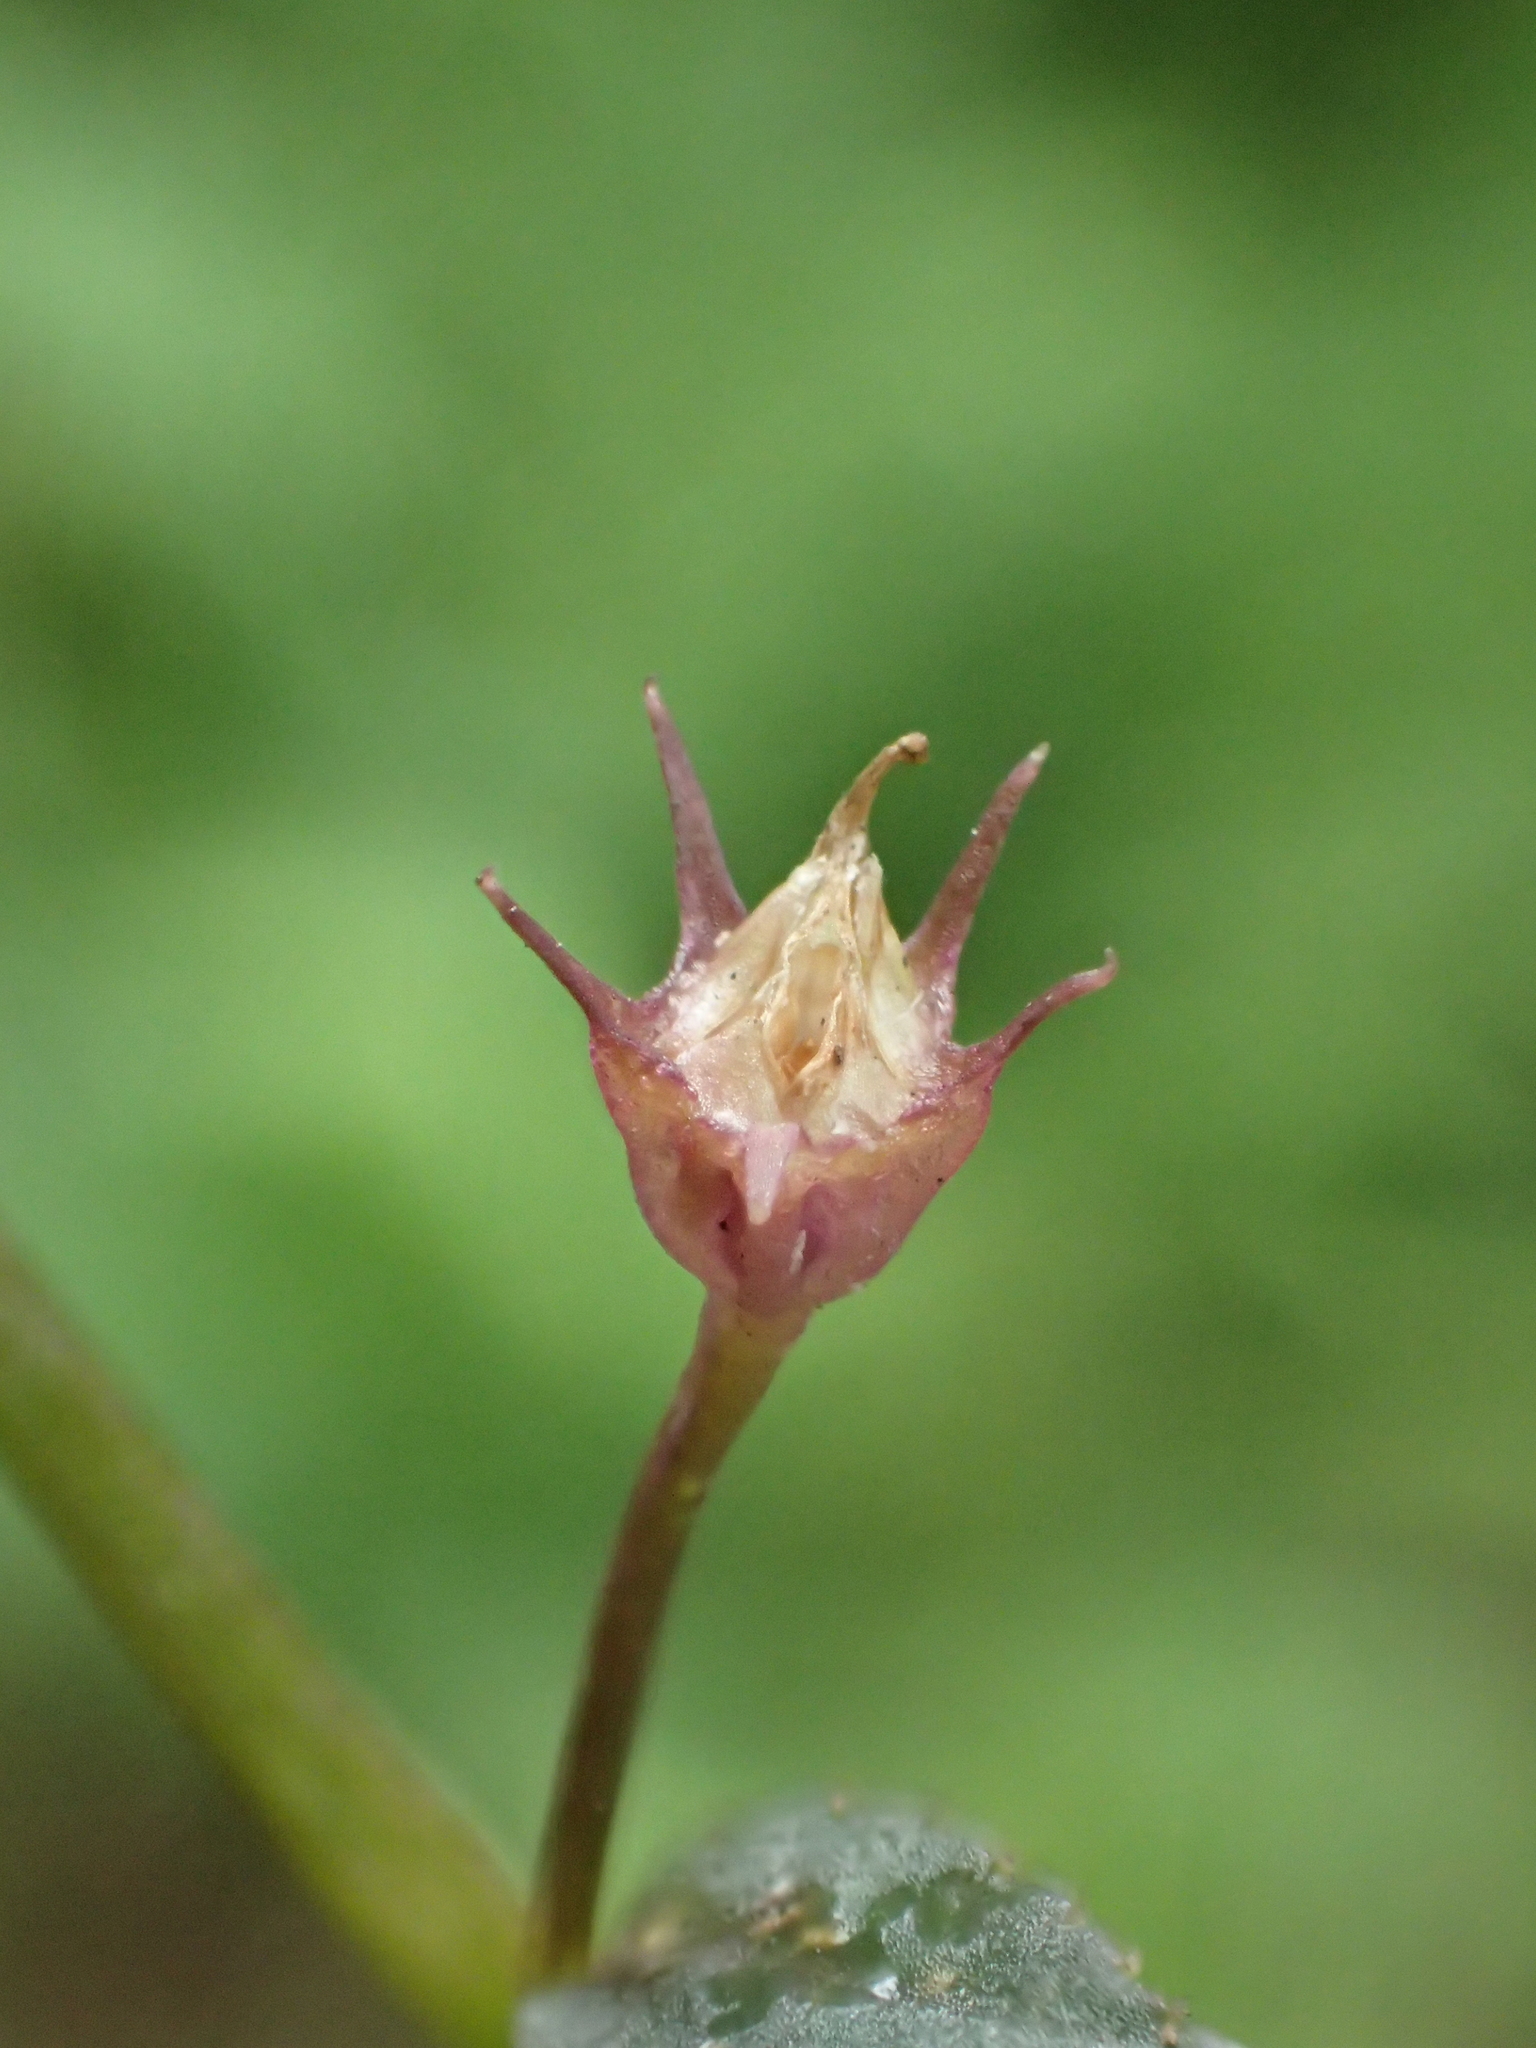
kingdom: Plantae
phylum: Tracheophyta
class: Magnoliopsida
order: Asterales
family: Campanulaceae
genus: Lobelia
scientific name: Lobelia alsinoides
